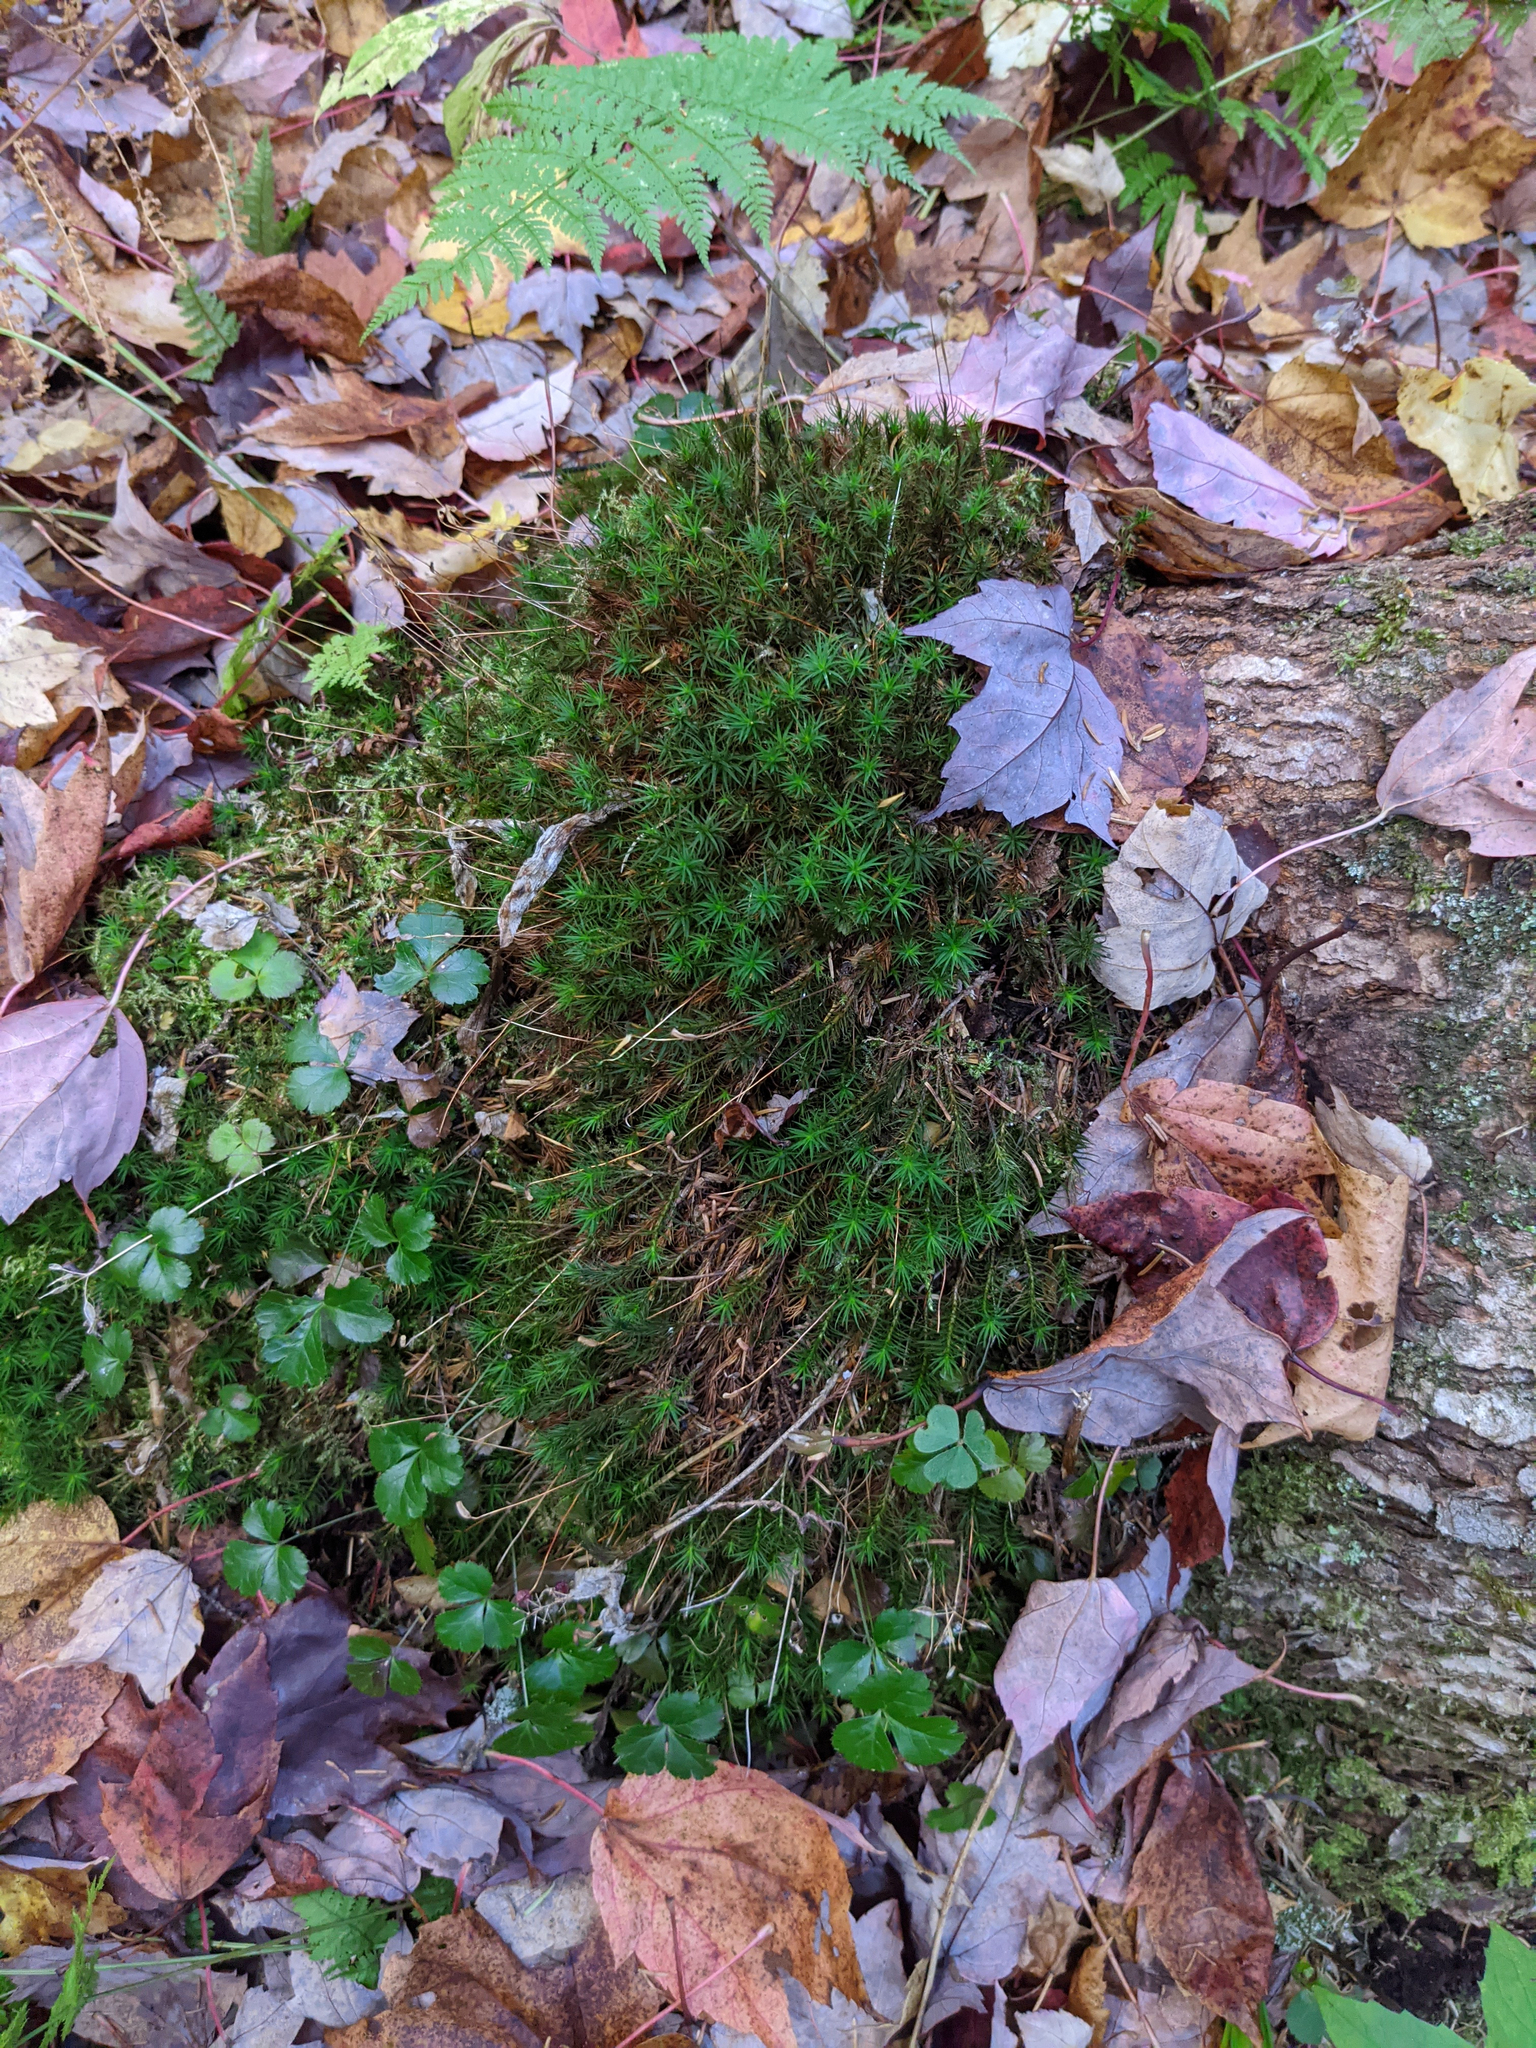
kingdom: Plantae
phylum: Tracheophyta
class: Magnoliopsida
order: Ranunculales
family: Ranunculaceae
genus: Coptis
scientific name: Coptis trifolia
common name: Canker-root
